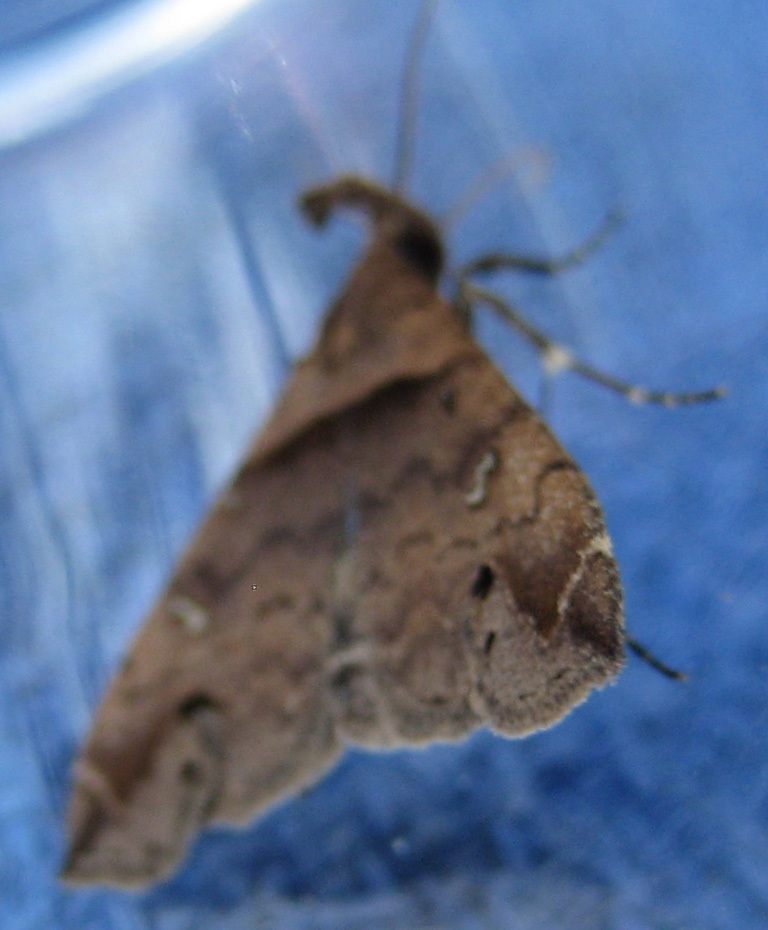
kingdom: Animalia
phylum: Arthropoda
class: Insecta
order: Lepidoptera
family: Erebidae
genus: Lascoria
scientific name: Lascoria ambigualis
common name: Ambiguous moth
